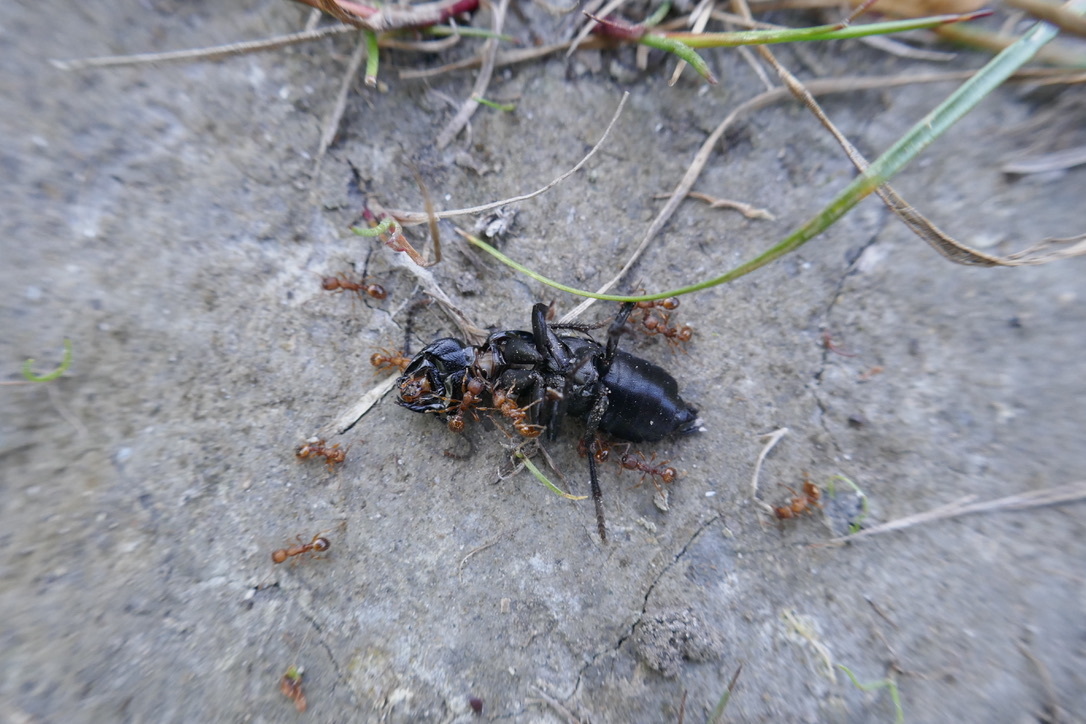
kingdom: Animalia
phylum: Arthropoda
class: Insecta
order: Coleoptera
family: Staphylinidae
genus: Ocypus
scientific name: Ocypus olens
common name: Devil's coach-horse
